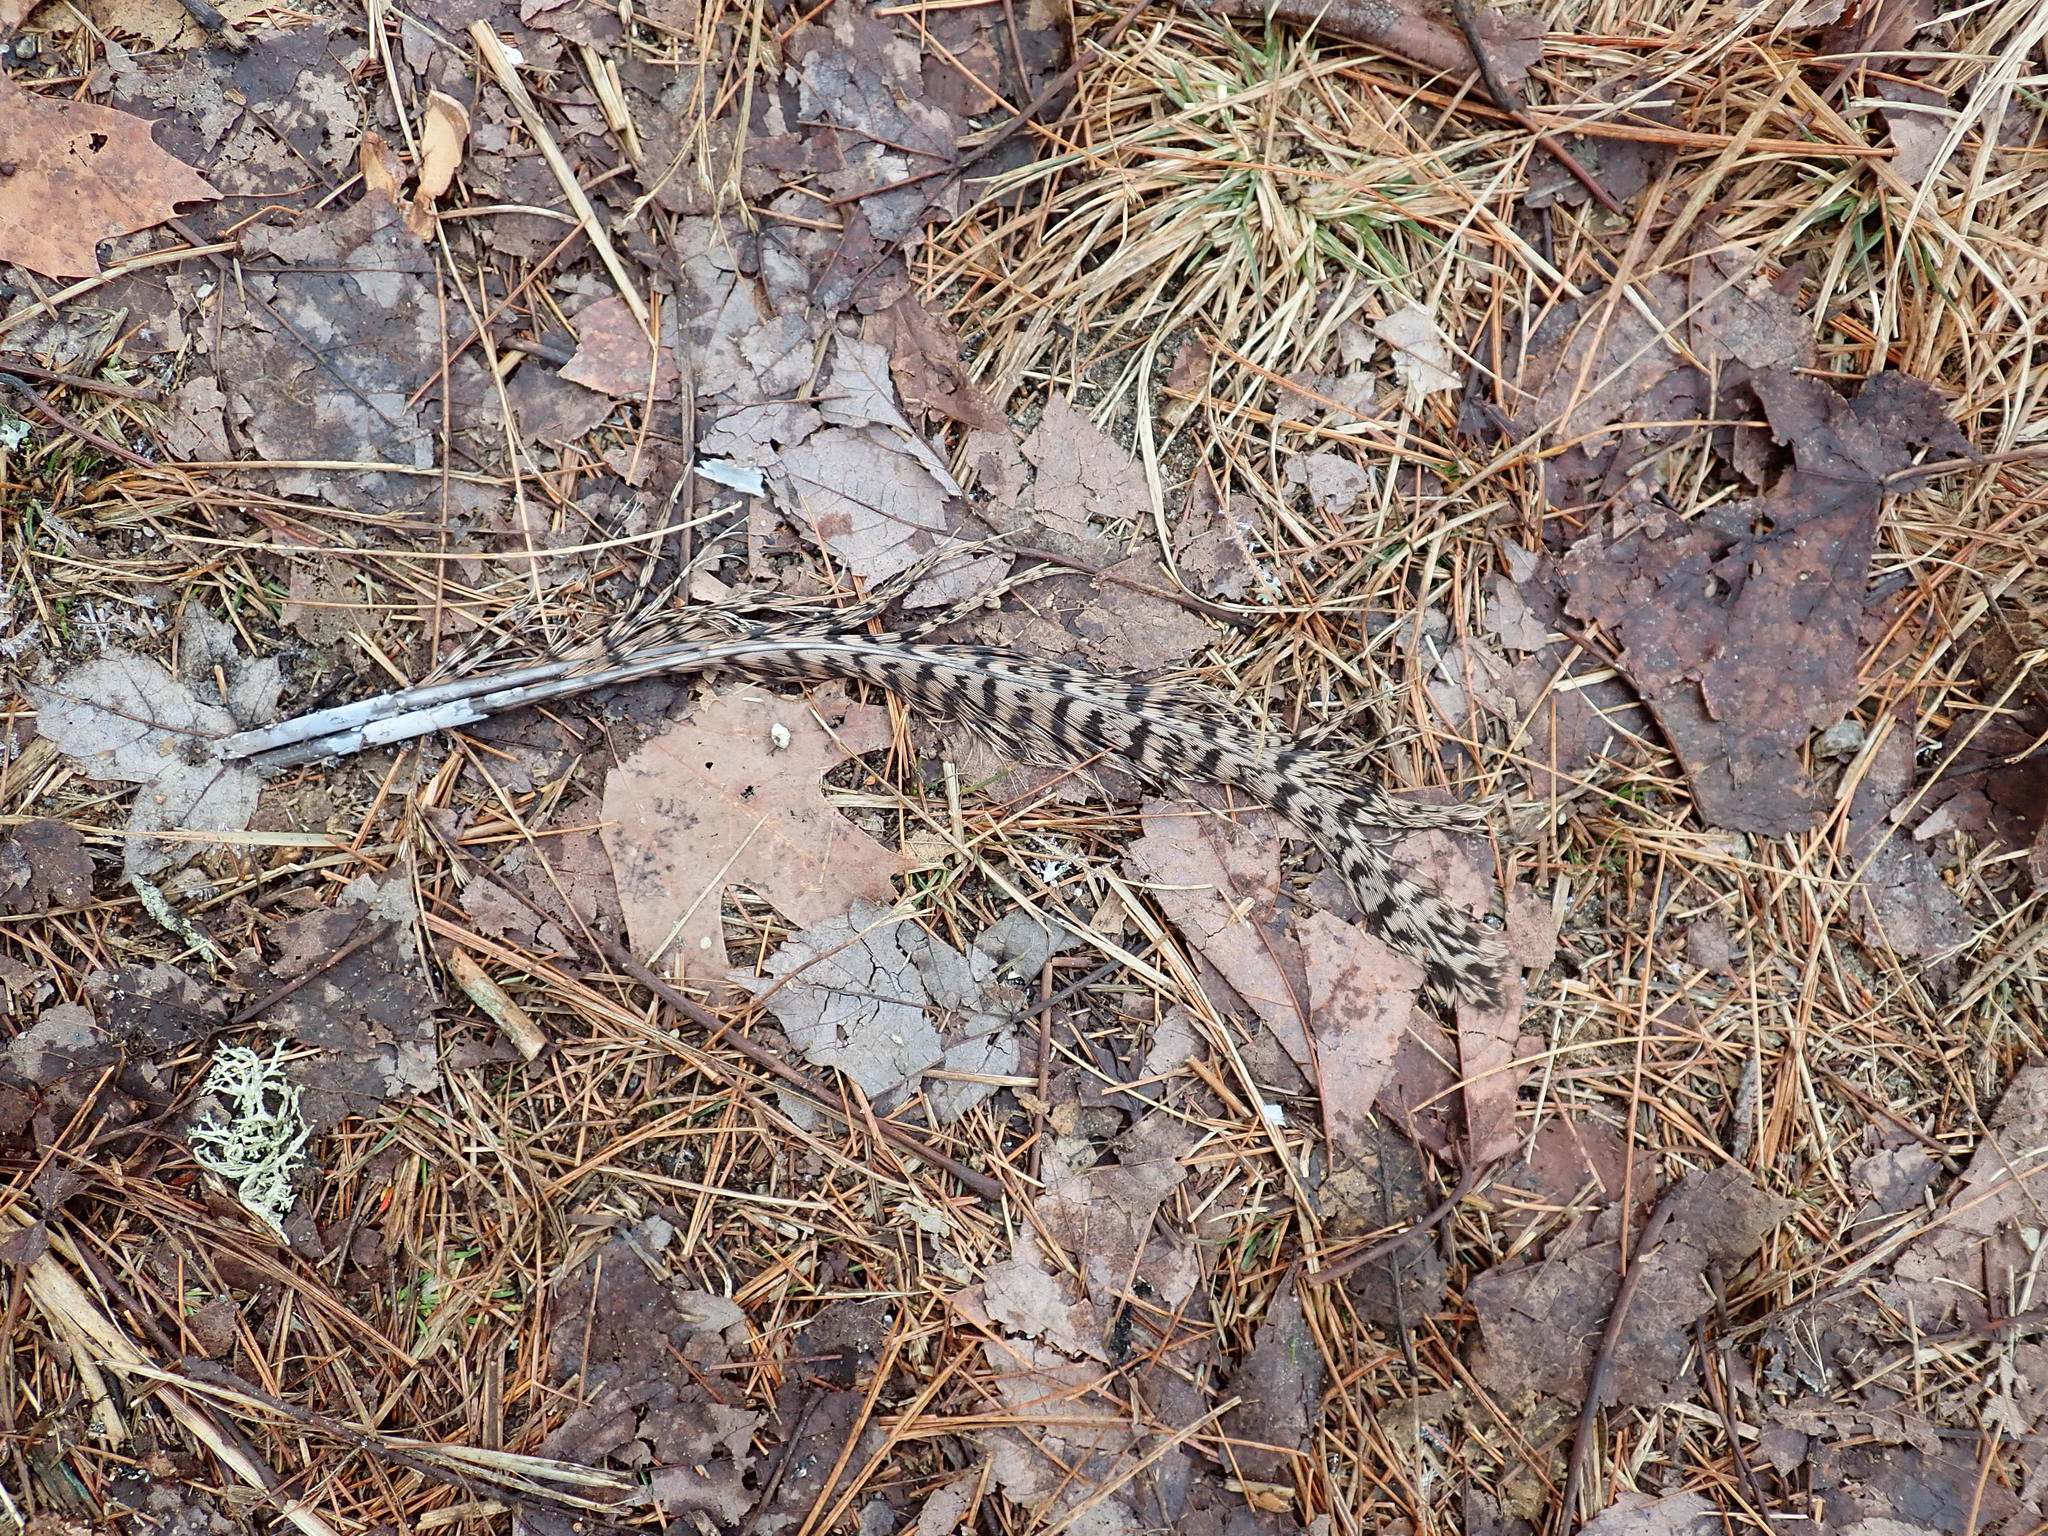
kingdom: Animalia
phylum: Chordata
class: Aves
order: Galliformes
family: Phasianidae
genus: Phasianus
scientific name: Phasianus colchicus
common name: Common pheasant
